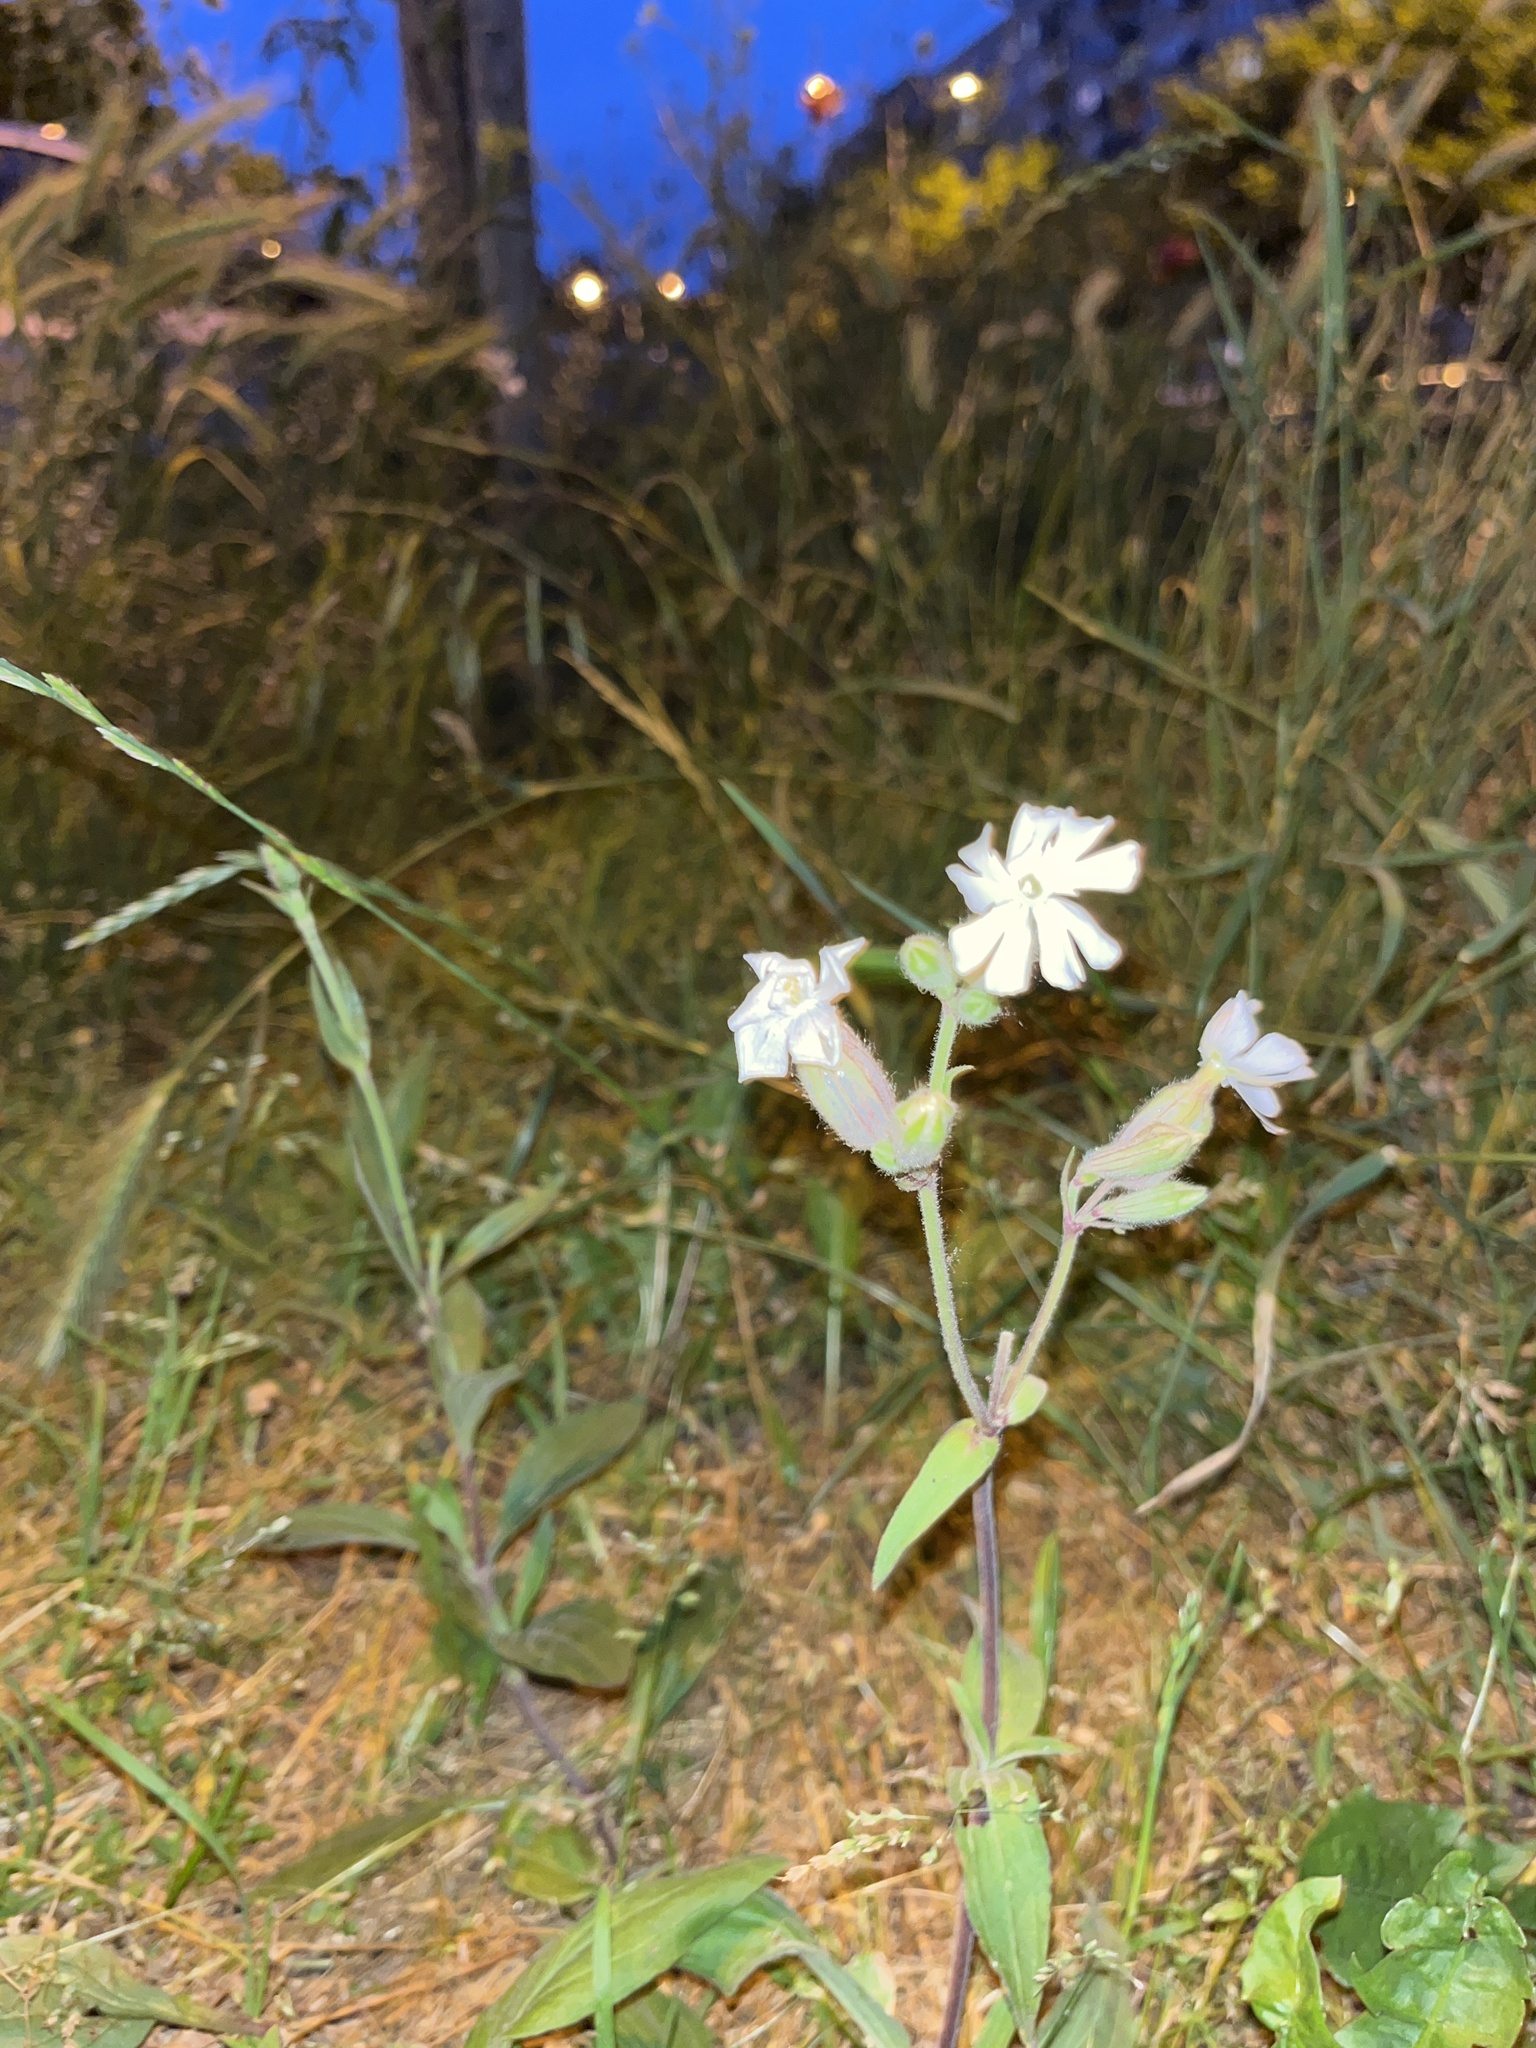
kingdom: Plantae
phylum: Tracheophyta
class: Magnoliopsida
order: Caryophyllales
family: Caryophyllaceae
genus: Silene
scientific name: Silene latifolia
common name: White campion
